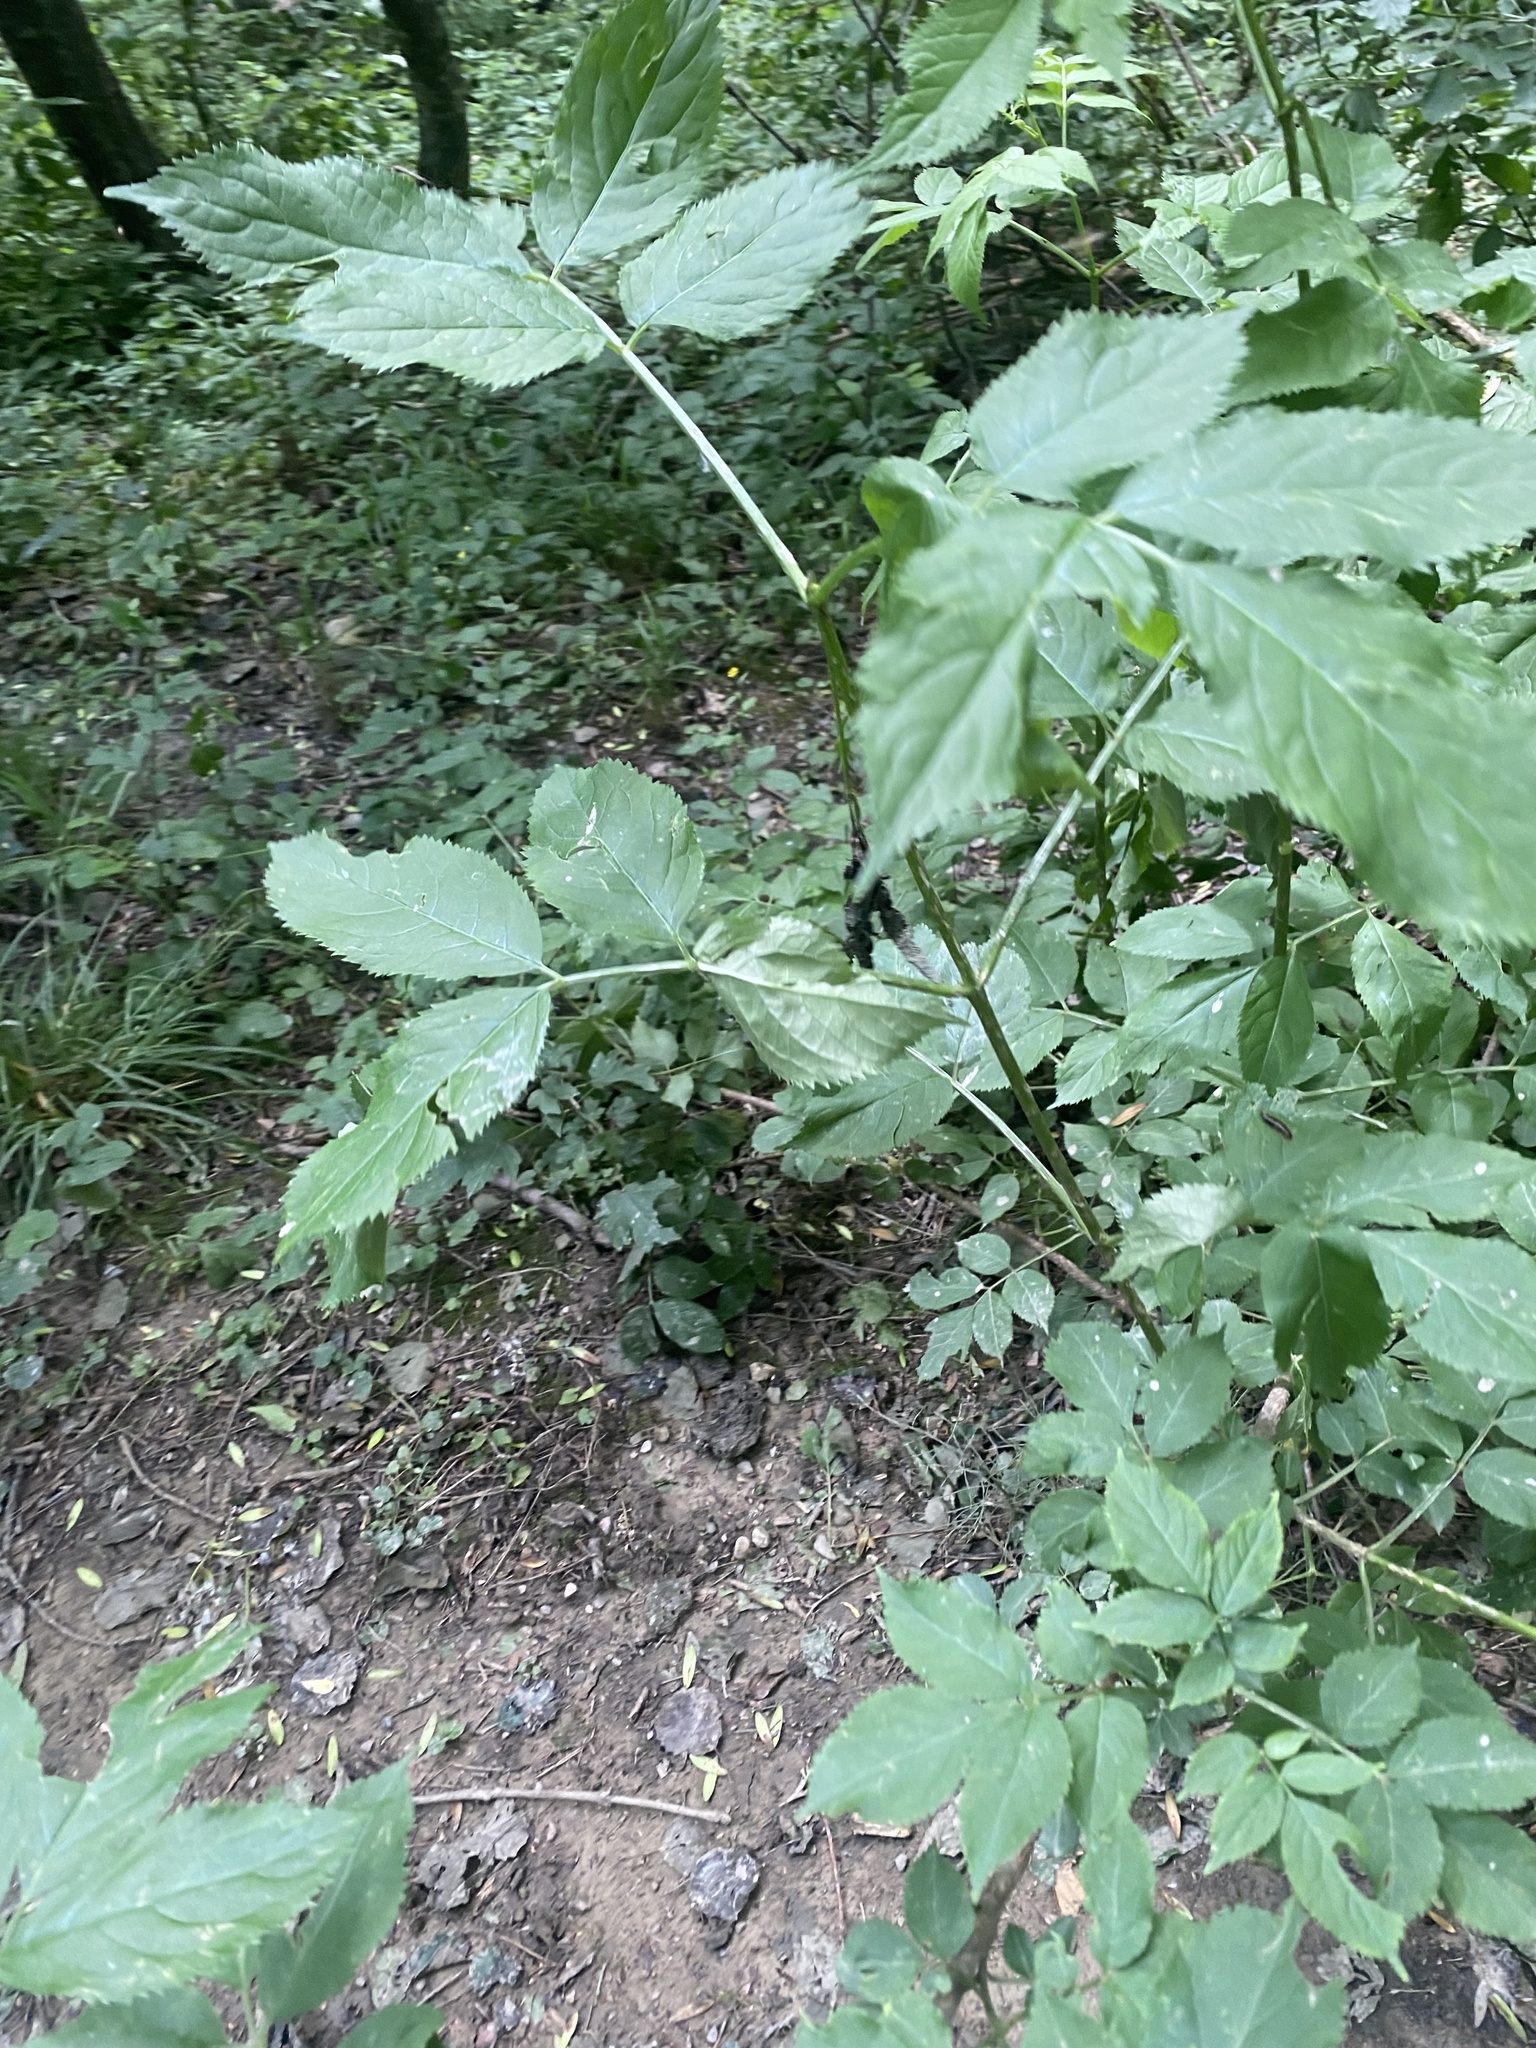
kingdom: Plantae
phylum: Tracheophyta
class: Magnoliopsida
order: Dipsacales
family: Viburnaceae
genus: Sambucus
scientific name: Sambucus nigra
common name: Elder
